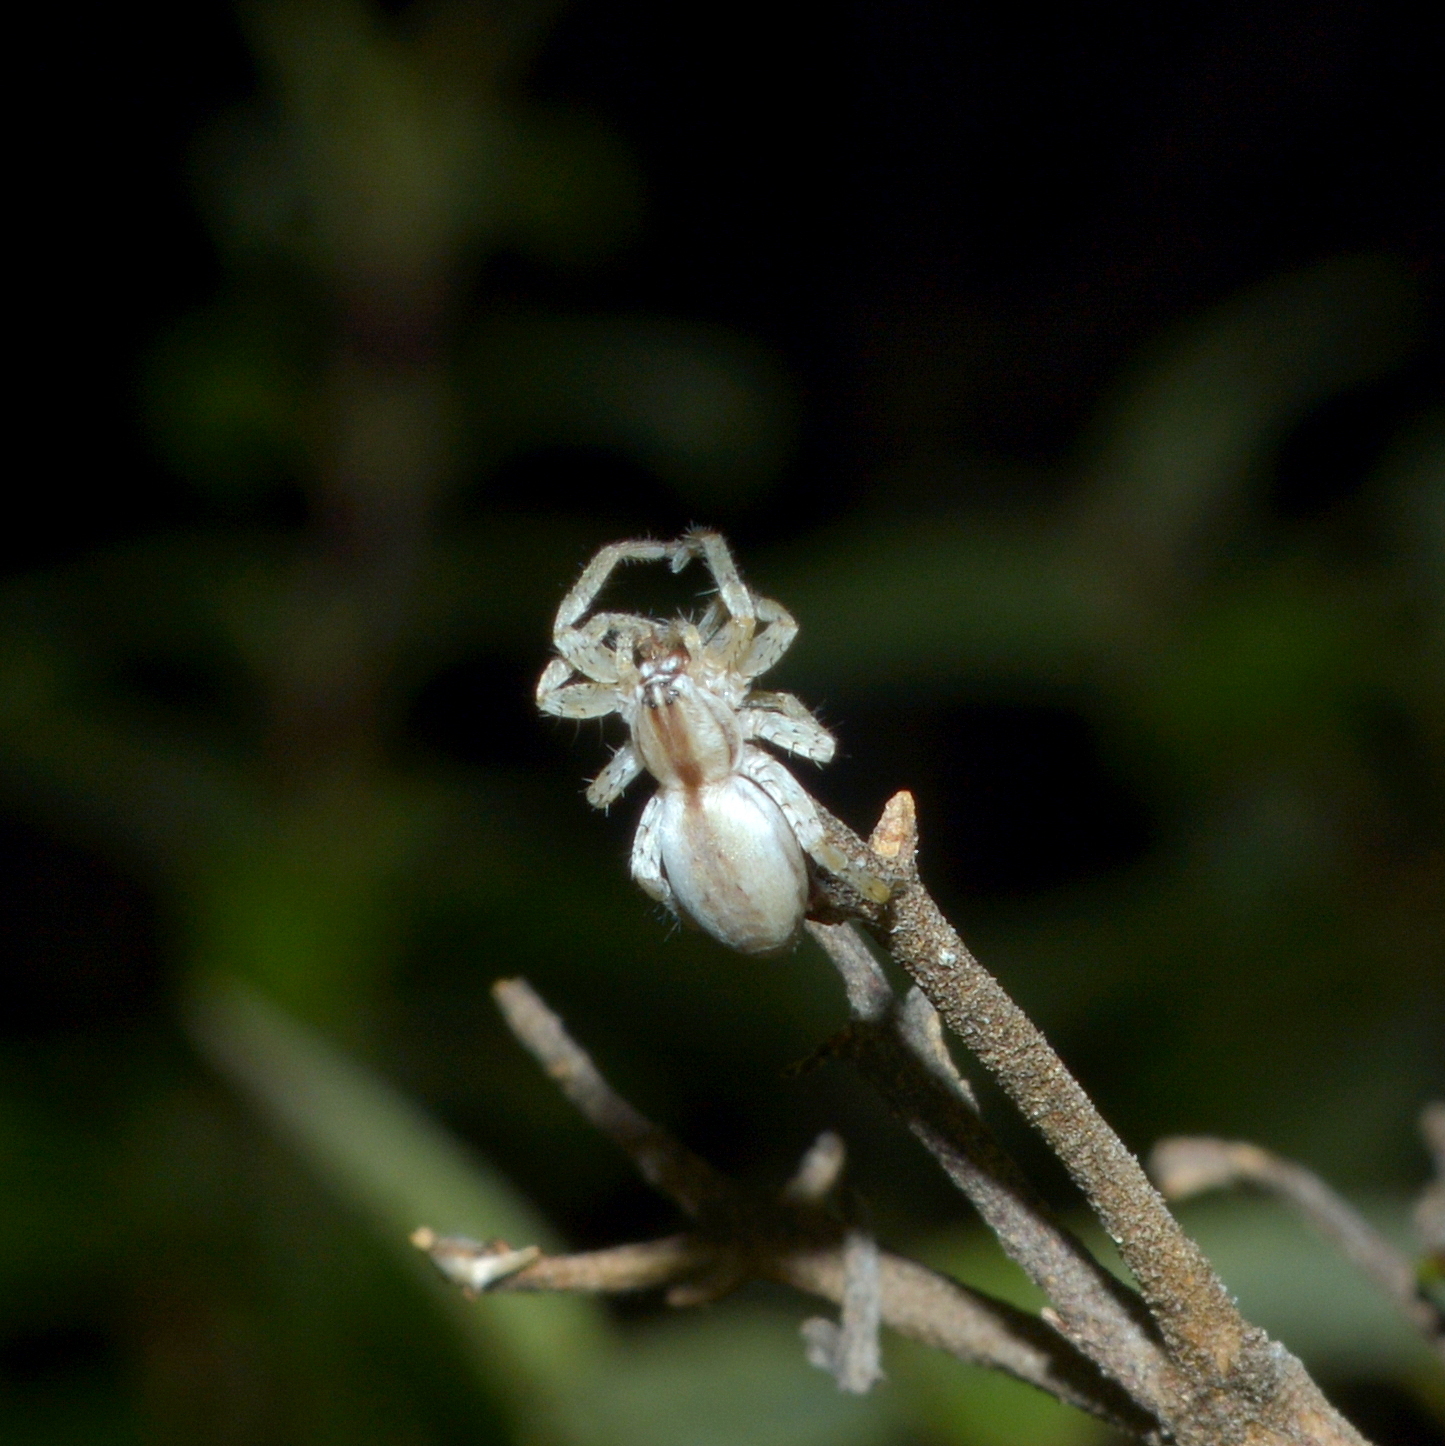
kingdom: Animalia
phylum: Arthropoda
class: Arachnida
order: Araneae
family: Anyphaenidae
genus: Arachosia
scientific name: Arachosia praesignis
